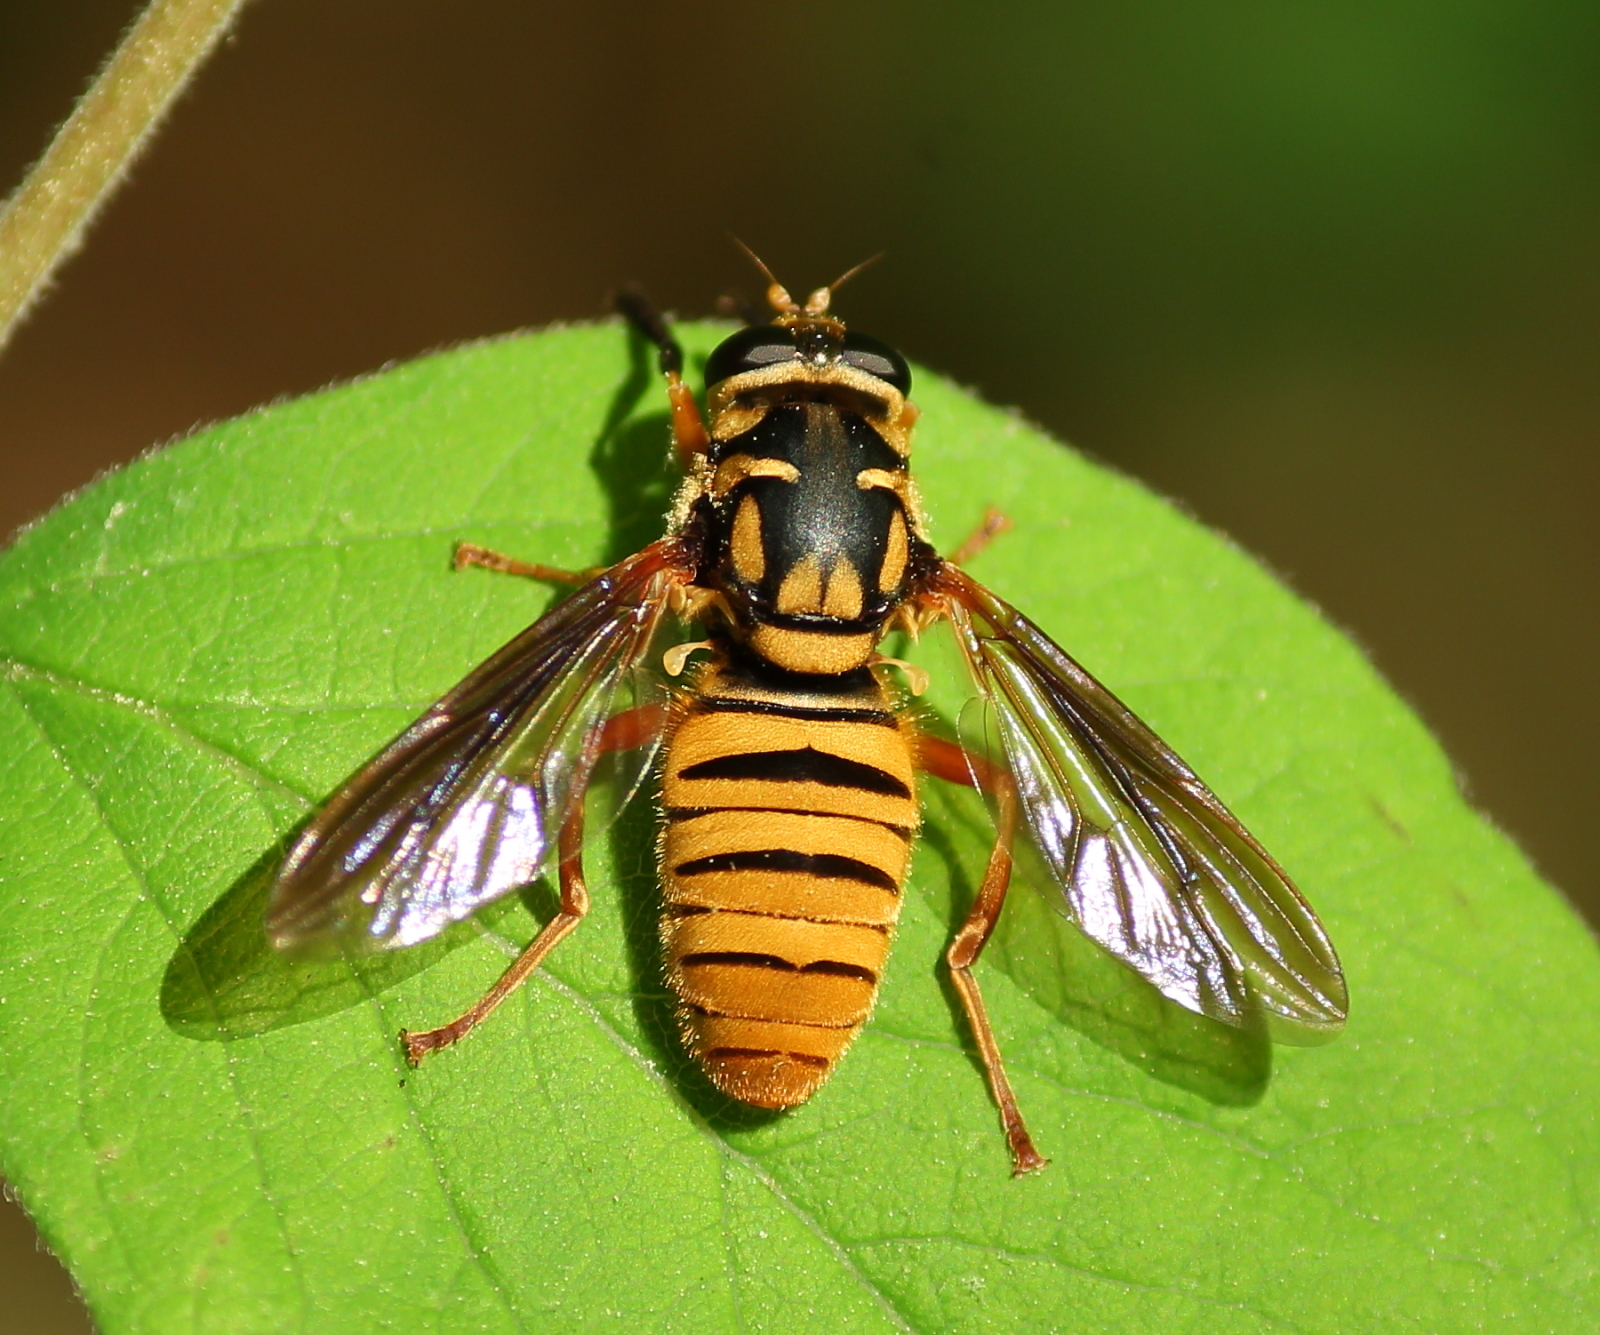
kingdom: Animalia
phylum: Arthropoda
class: Insecta
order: Diptera
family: Syrphidae
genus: Temnostoma
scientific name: Temnostoma daochum
